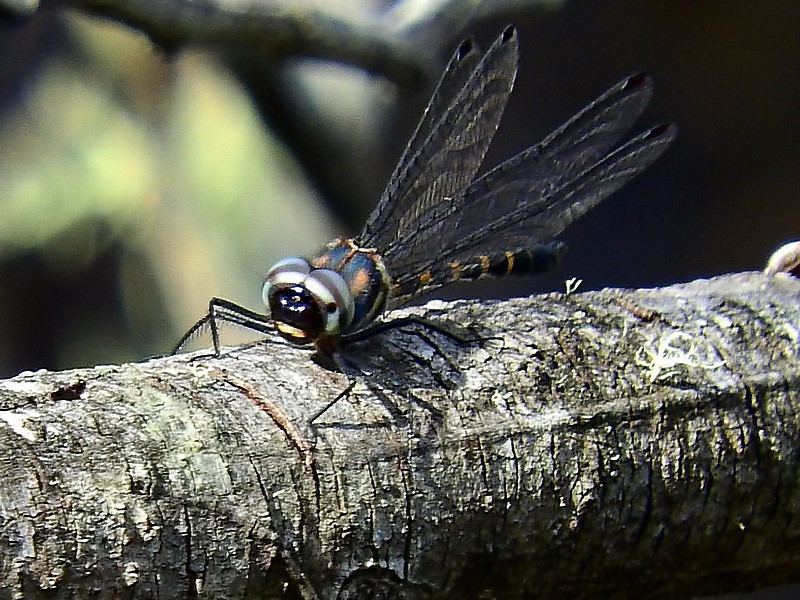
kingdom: Animalia
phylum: Arthropoda
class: Insecta
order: Odonata
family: Corduliidae
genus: Cordulephya
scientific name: Cordulephya pygmaea
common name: Common shutwing
